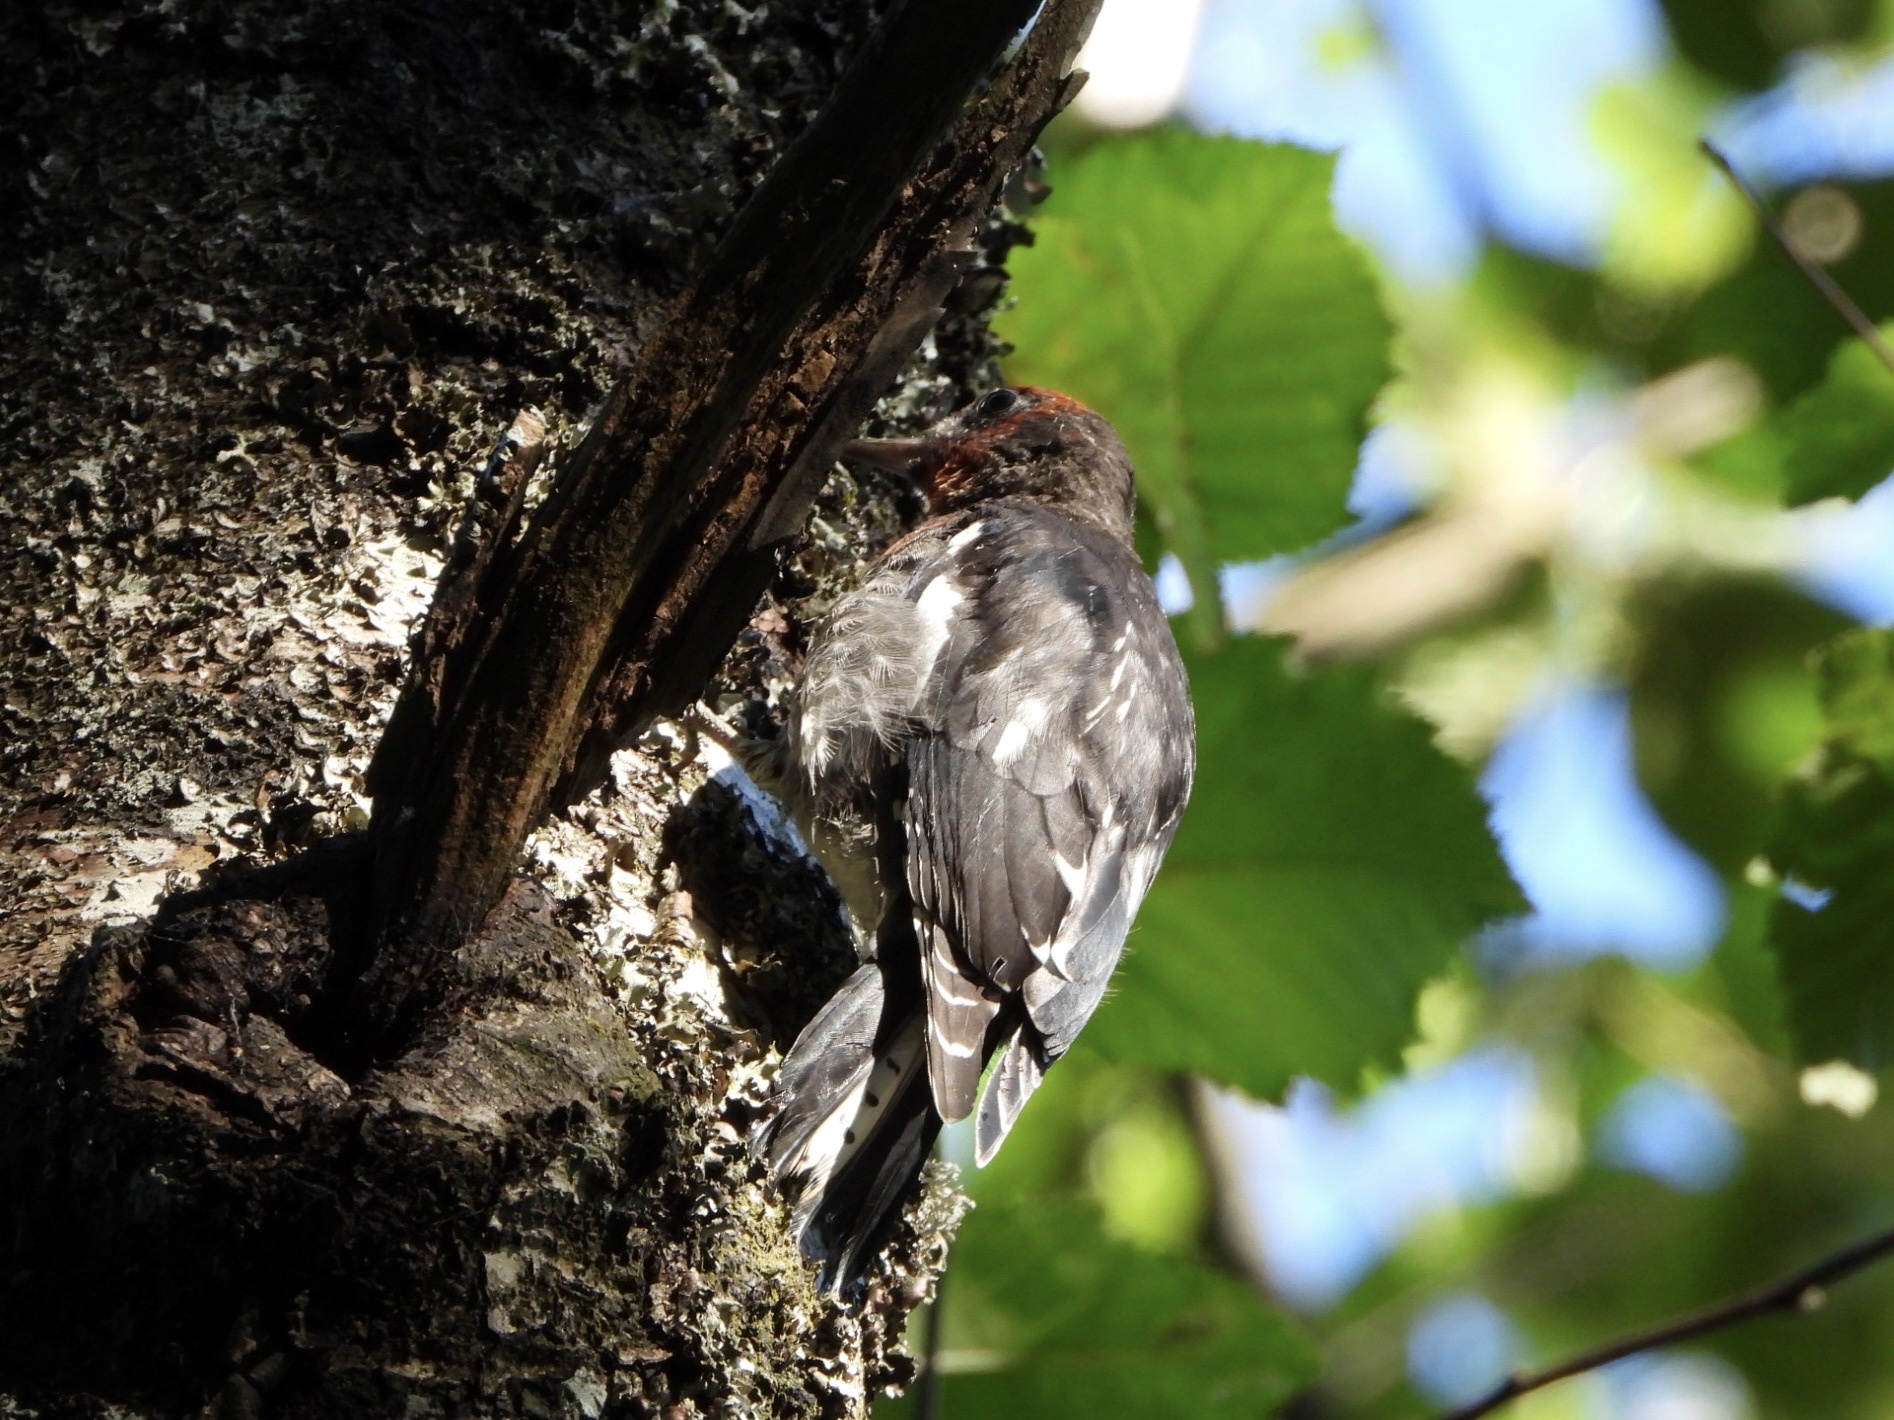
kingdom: Animalia
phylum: Chordata
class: Aves
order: Piciformes
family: Picidae
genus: Sphyrapicus
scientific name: Sphyrapicus ruber
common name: Red-breasted sapsucker
